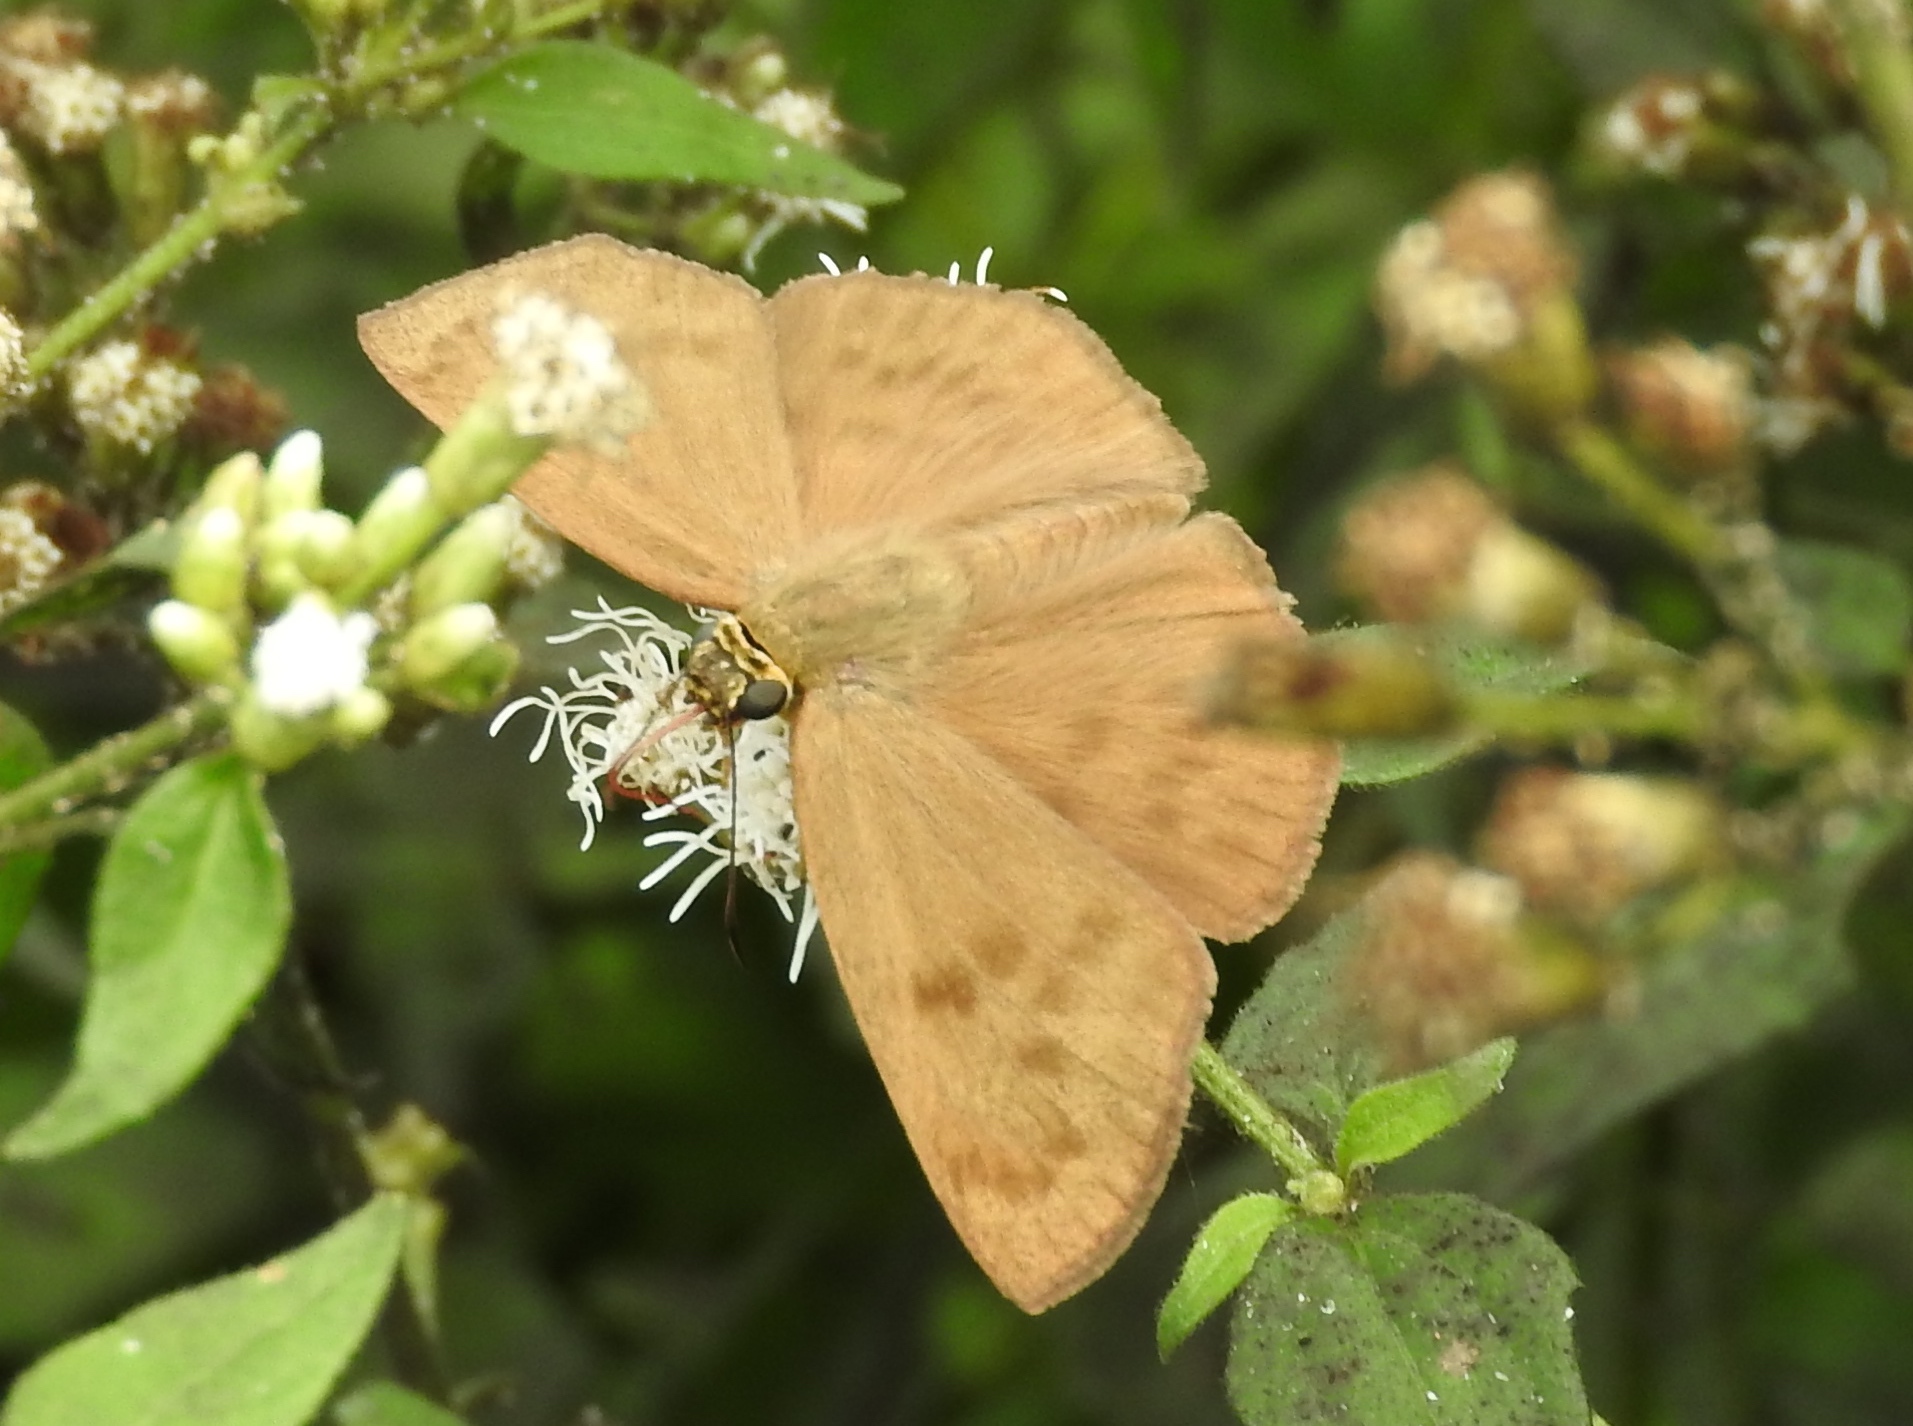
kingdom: Animalia
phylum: Arthropoda
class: Insecta
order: Lepidoptera
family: Hesperiidae
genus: Grais
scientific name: Grais stigmaticus
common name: Hermit skipper
